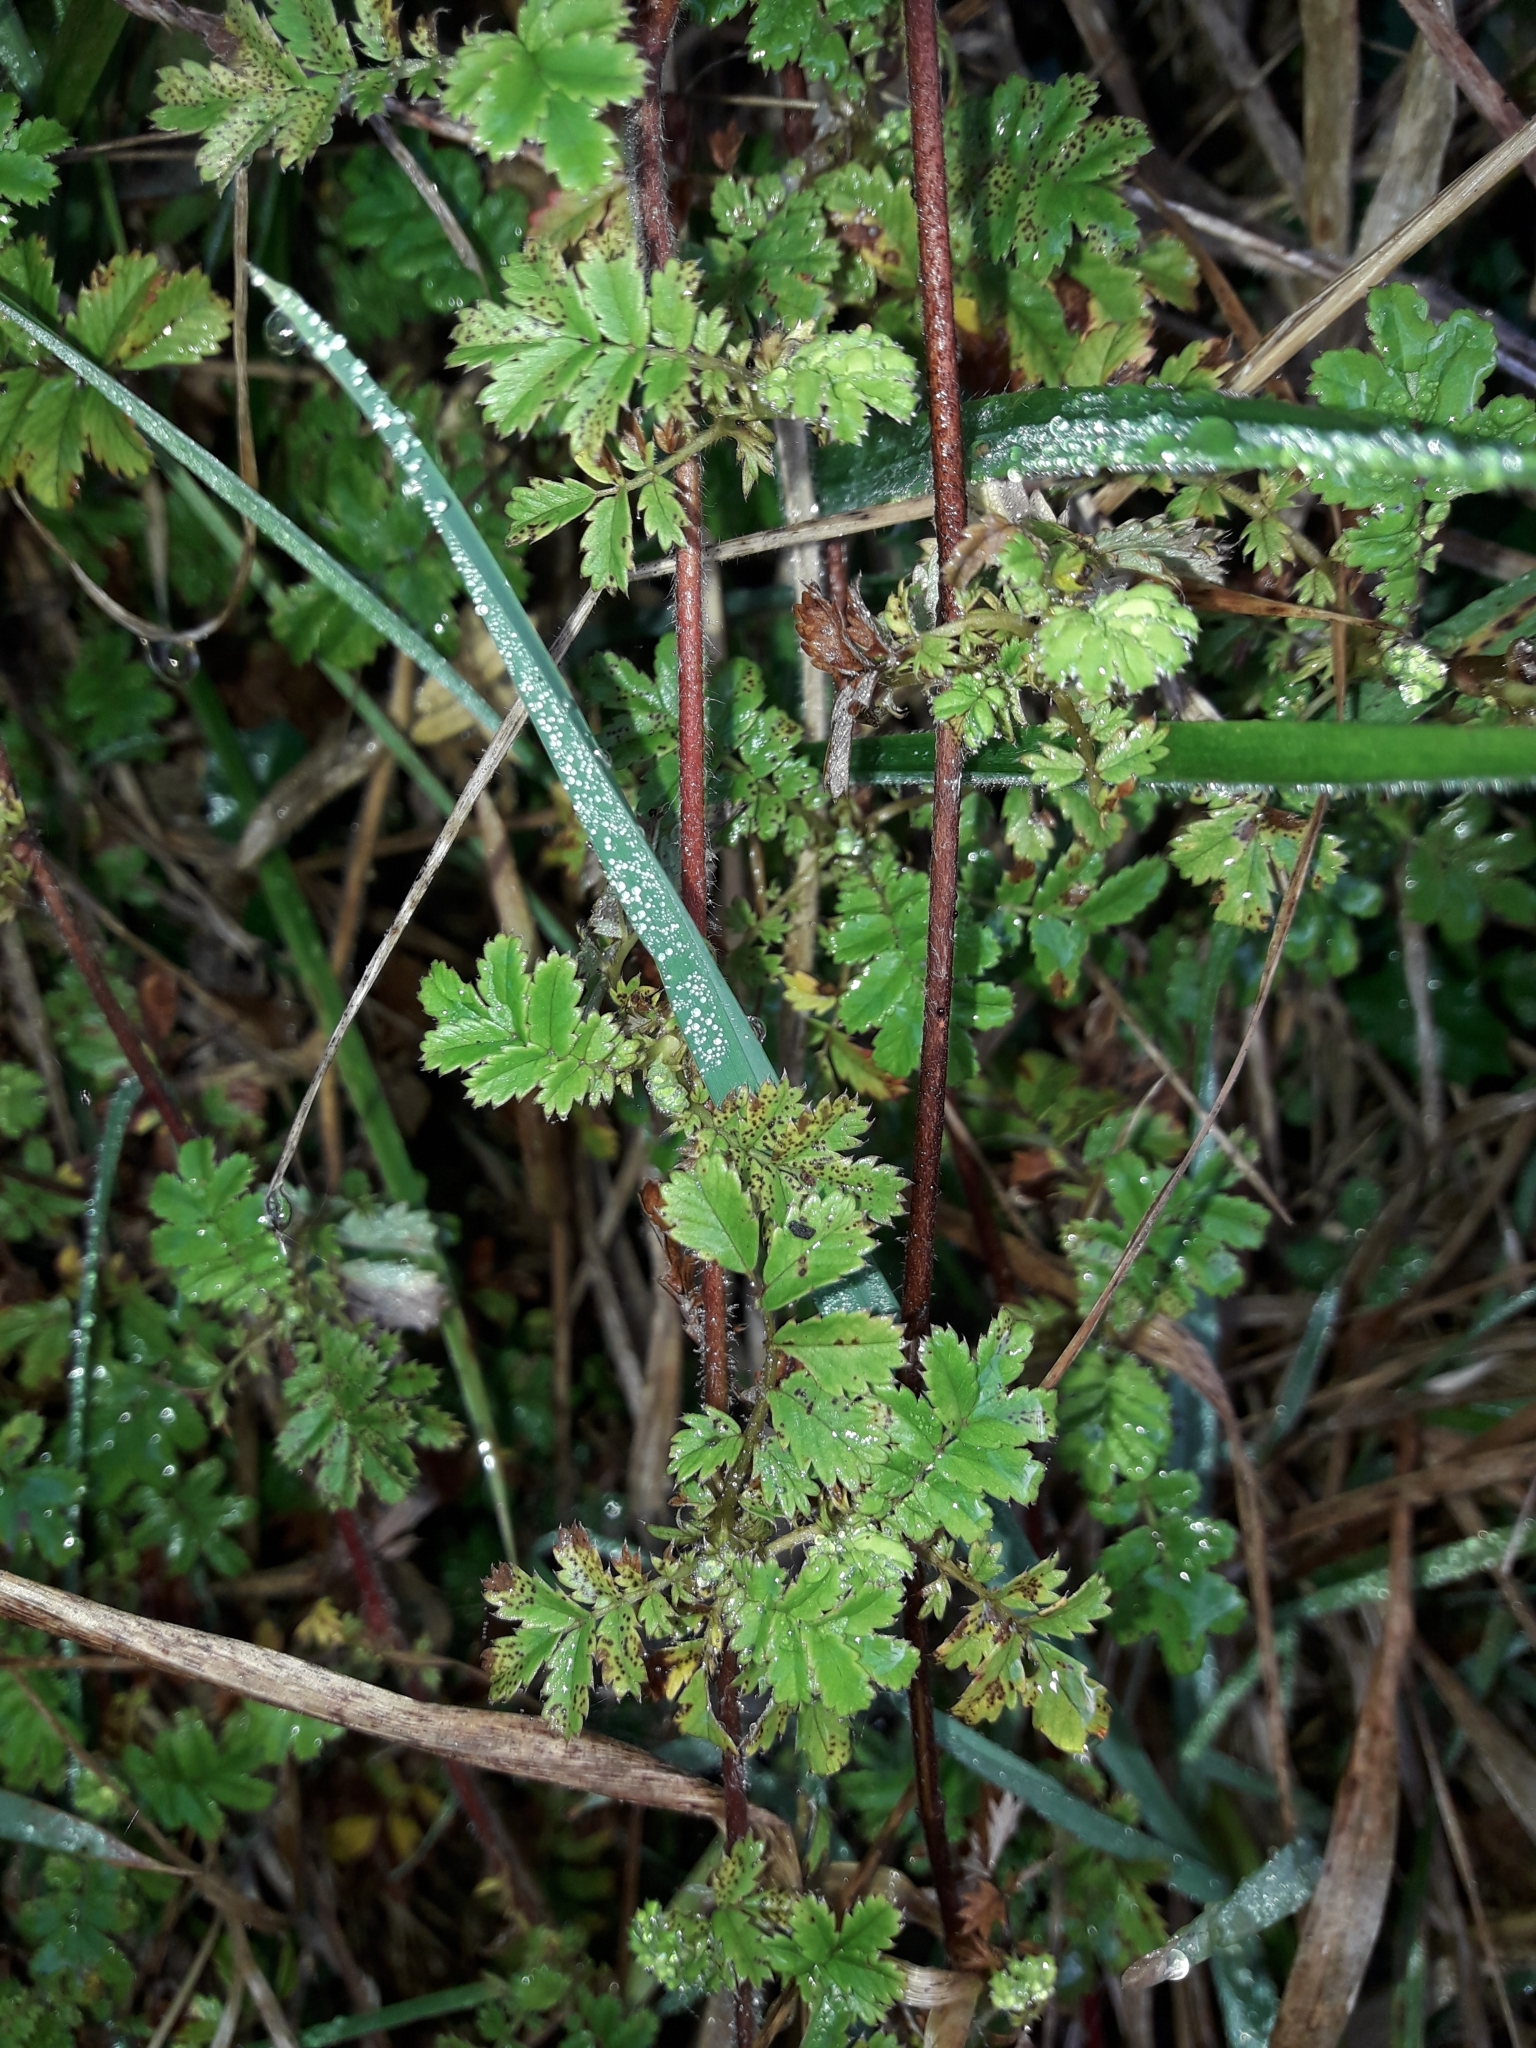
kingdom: Plantae
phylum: Tracheophyta
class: Magnoliopsida
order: Rosales
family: Rosaceae
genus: Acaena
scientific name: Acaena novae-zelandiae
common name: Pirri-pirri-bur
